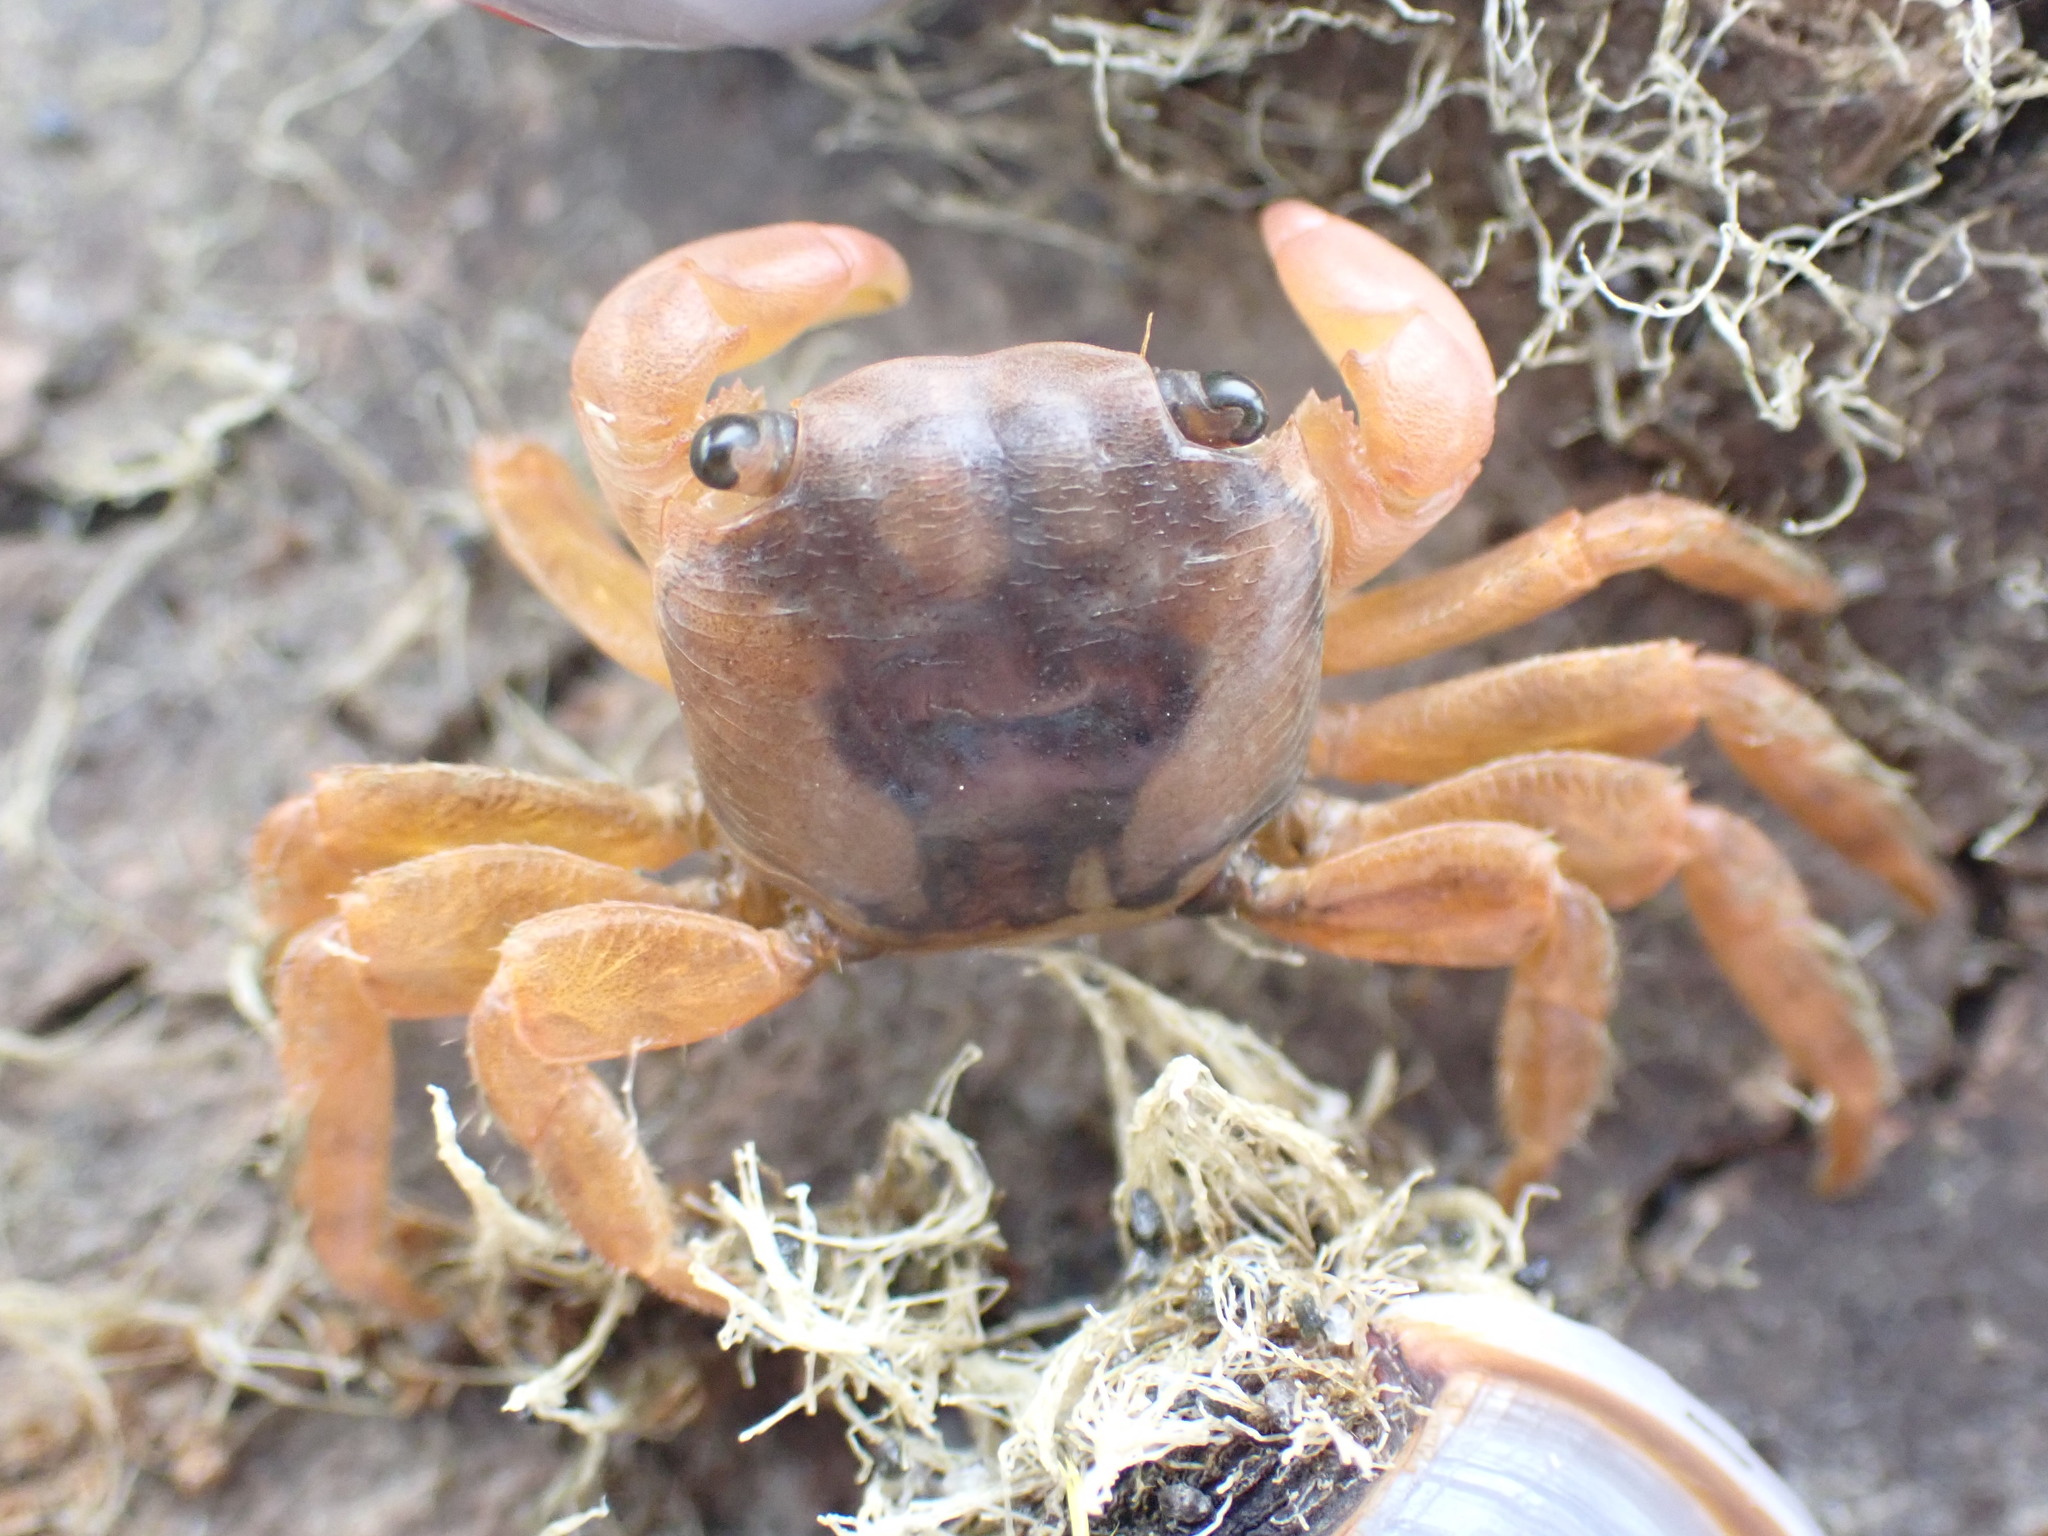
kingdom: Animalia
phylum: Arthropoda
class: Malacostraca
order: Decapoda
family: Grapsidae
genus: Planes
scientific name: Planes minutus
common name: Gulf weed crab
